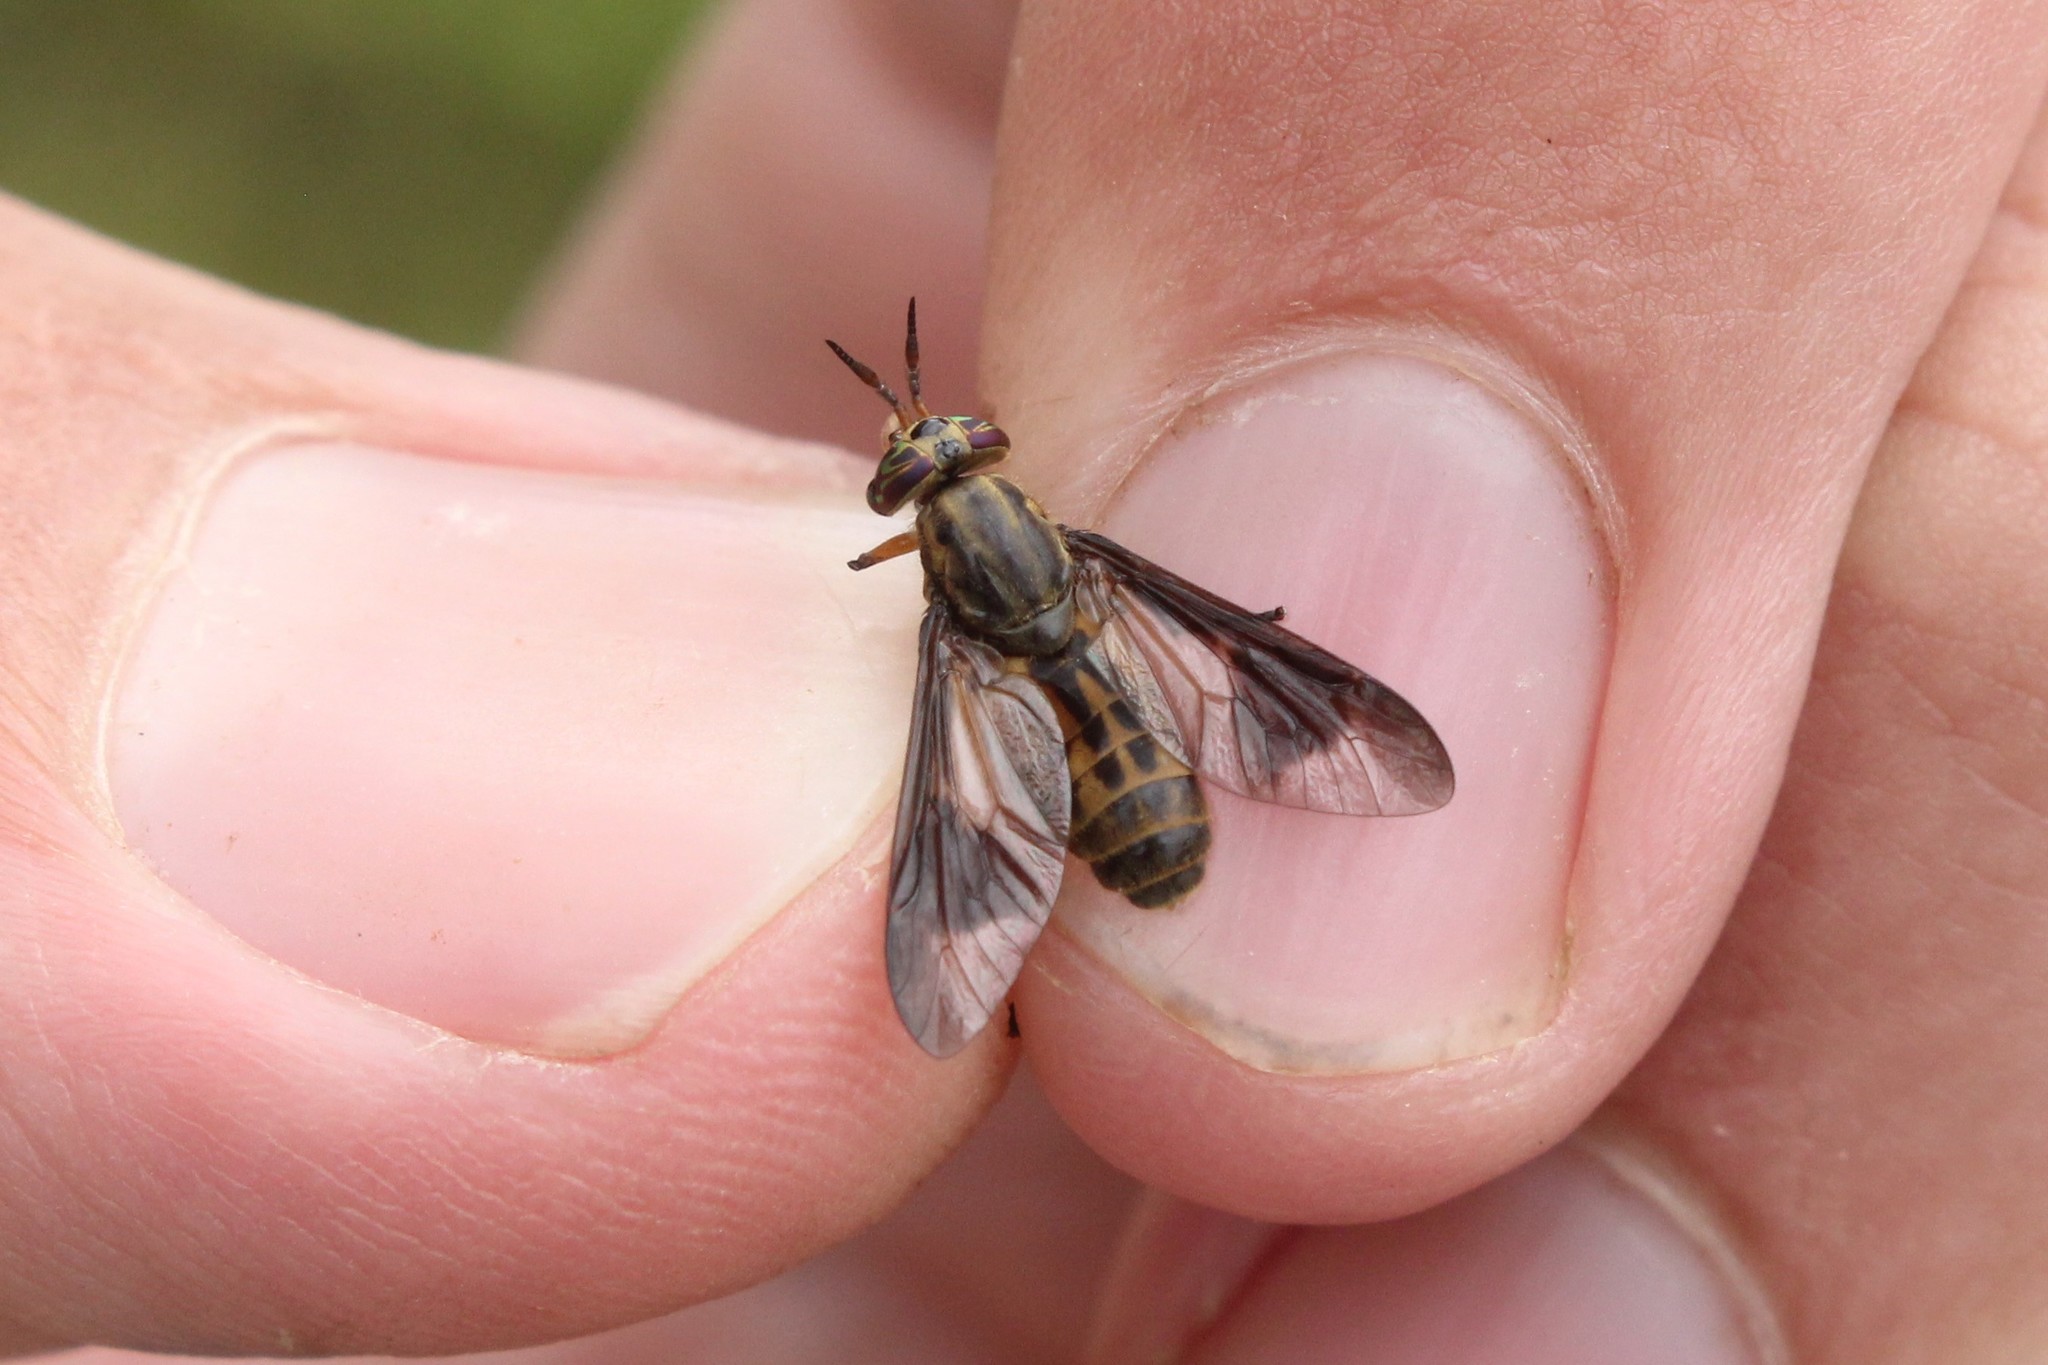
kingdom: Animalia
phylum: Arthropoda
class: Insecta
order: Diptera
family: Tabanidae
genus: Chrysops
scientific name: Chrysops aberrans
